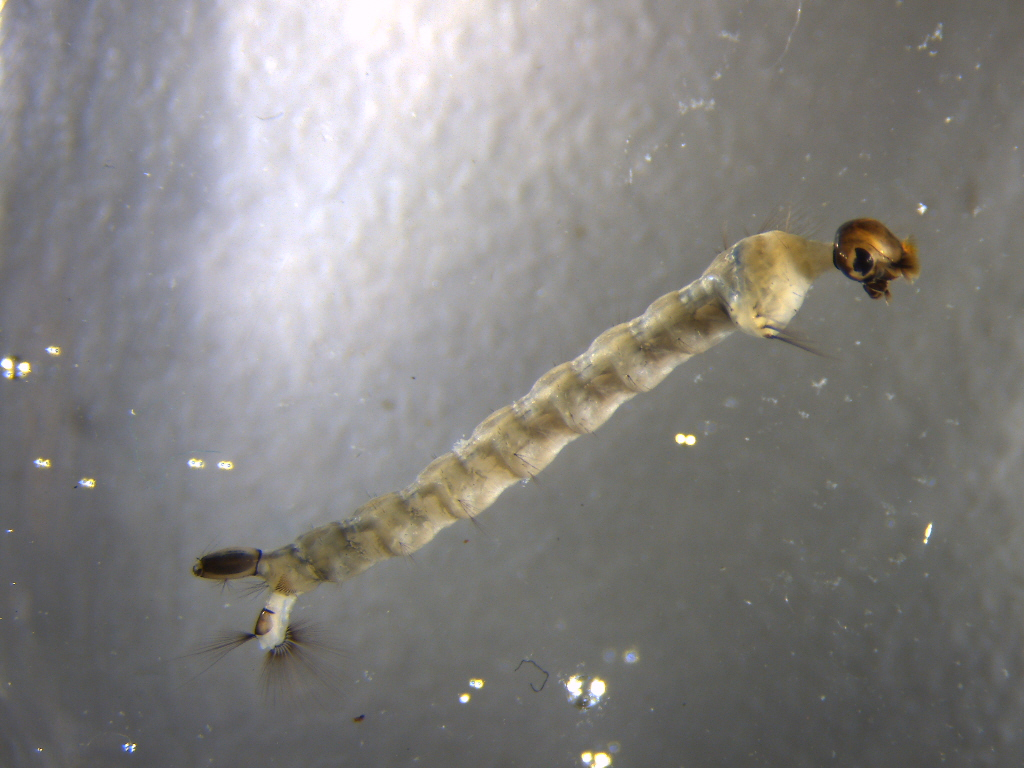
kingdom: Animalia
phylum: Arthropoda
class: Insecta
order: Diptera
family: Culicidae
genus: Opifex
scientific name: Opifex fuscus
